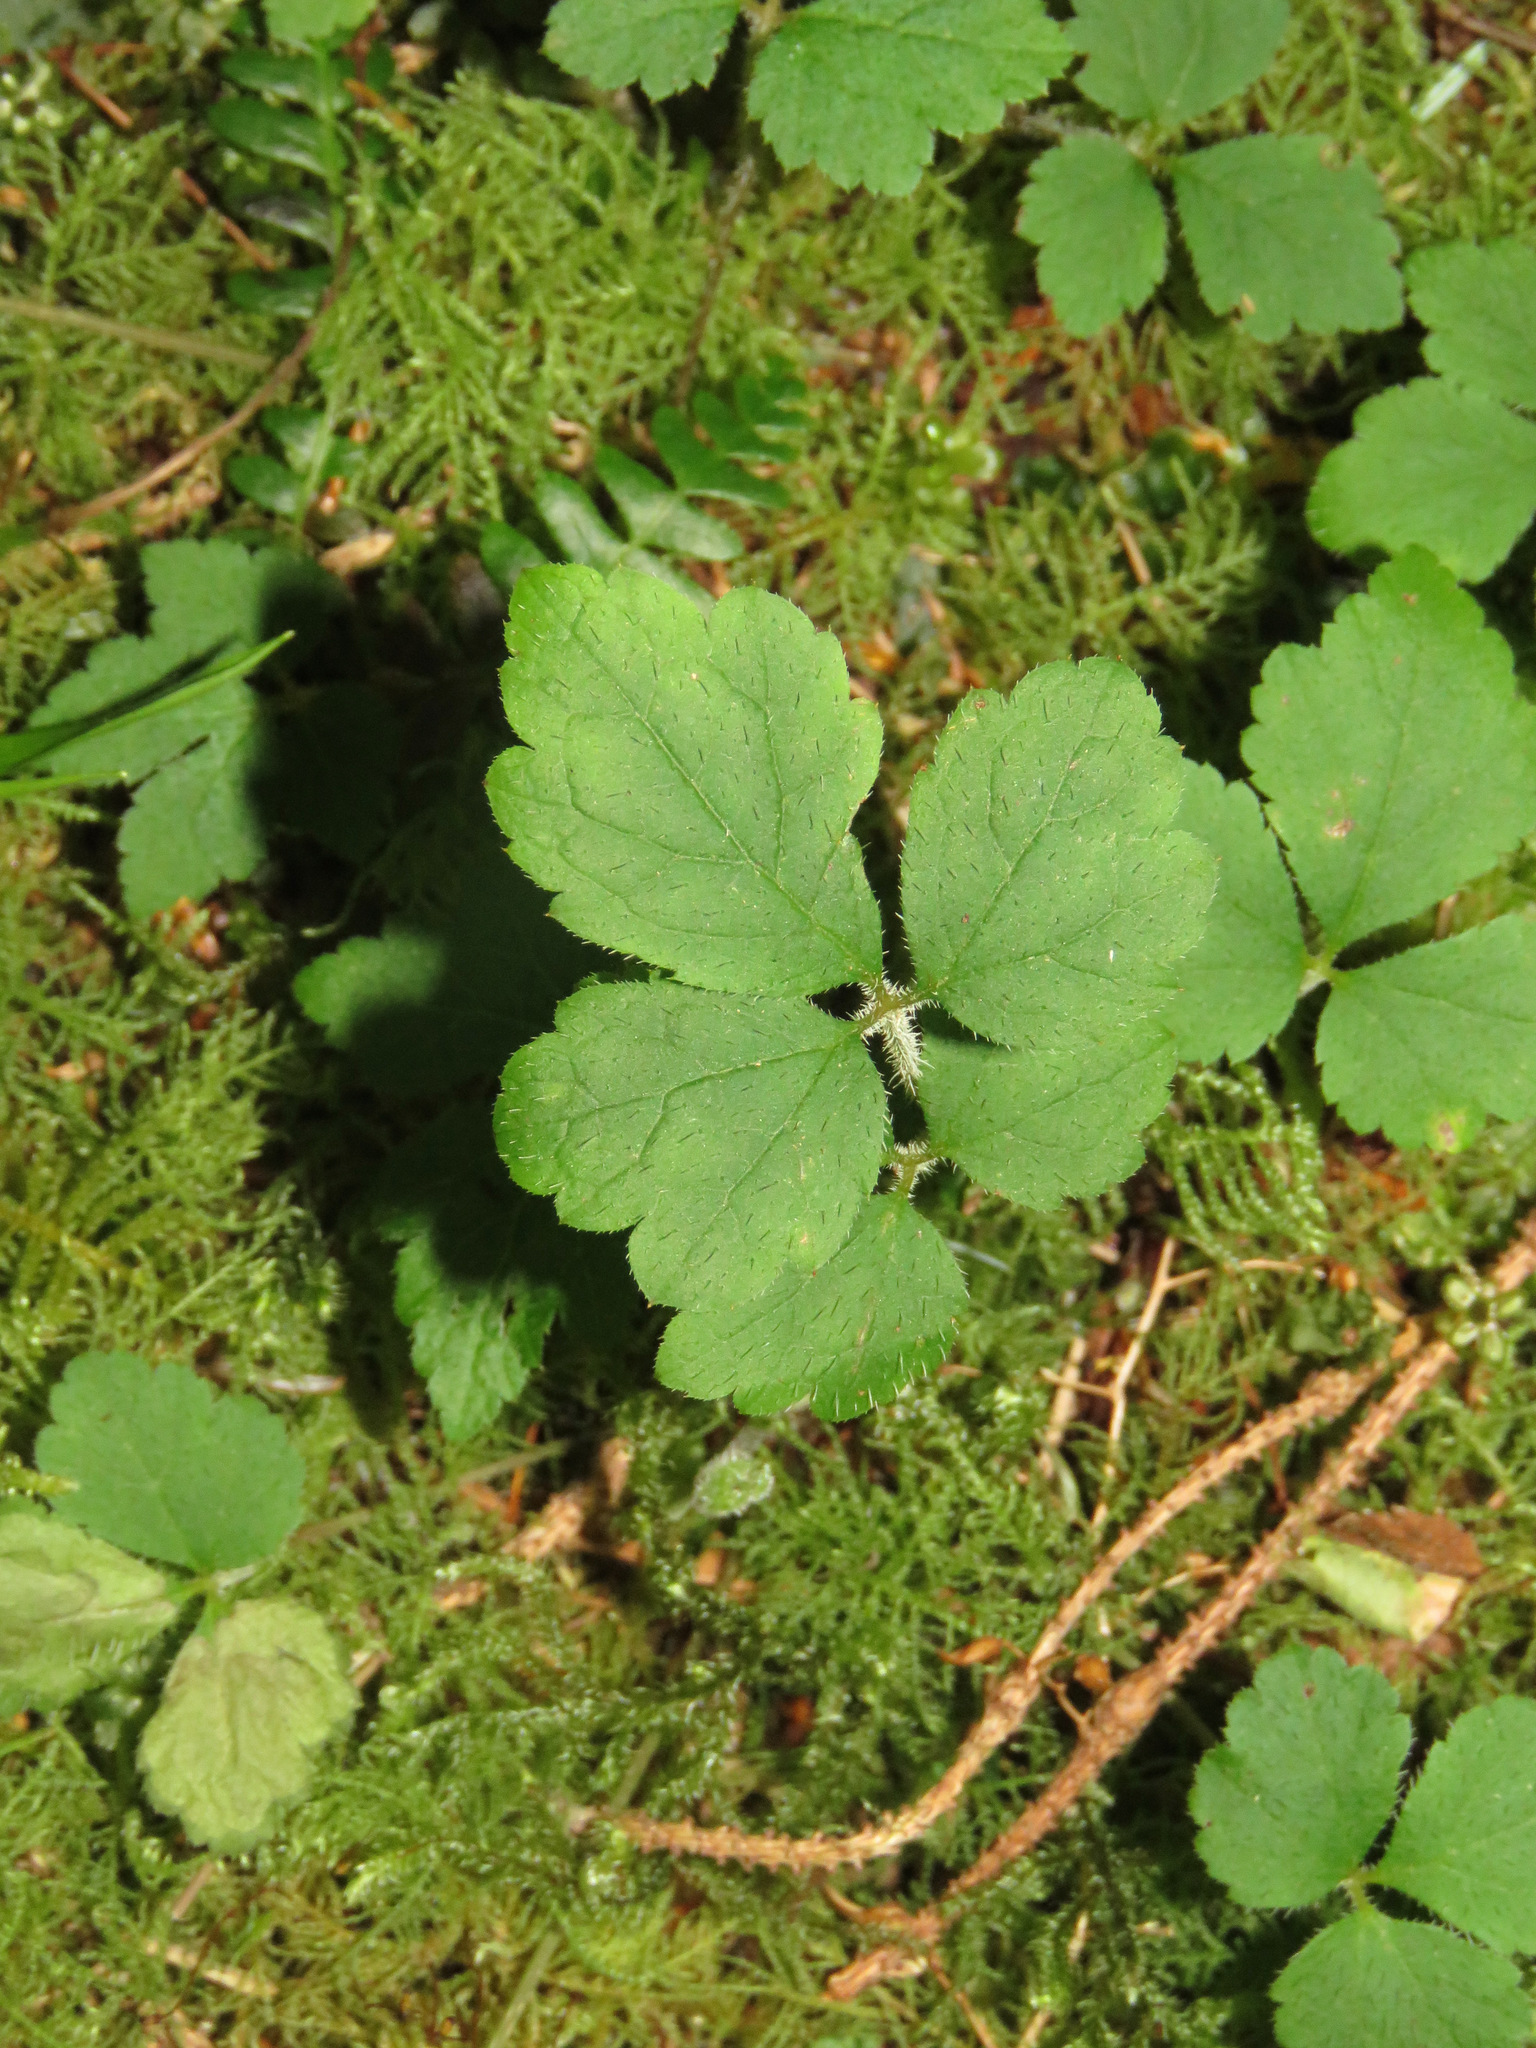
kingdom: Plantae
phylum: Tracheophyta
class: Magnoliopsida
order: Saxifragales
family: Saxifragaceae
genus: Tiarella
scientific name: Tiarella trifoliata
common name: Sugar-scoop
